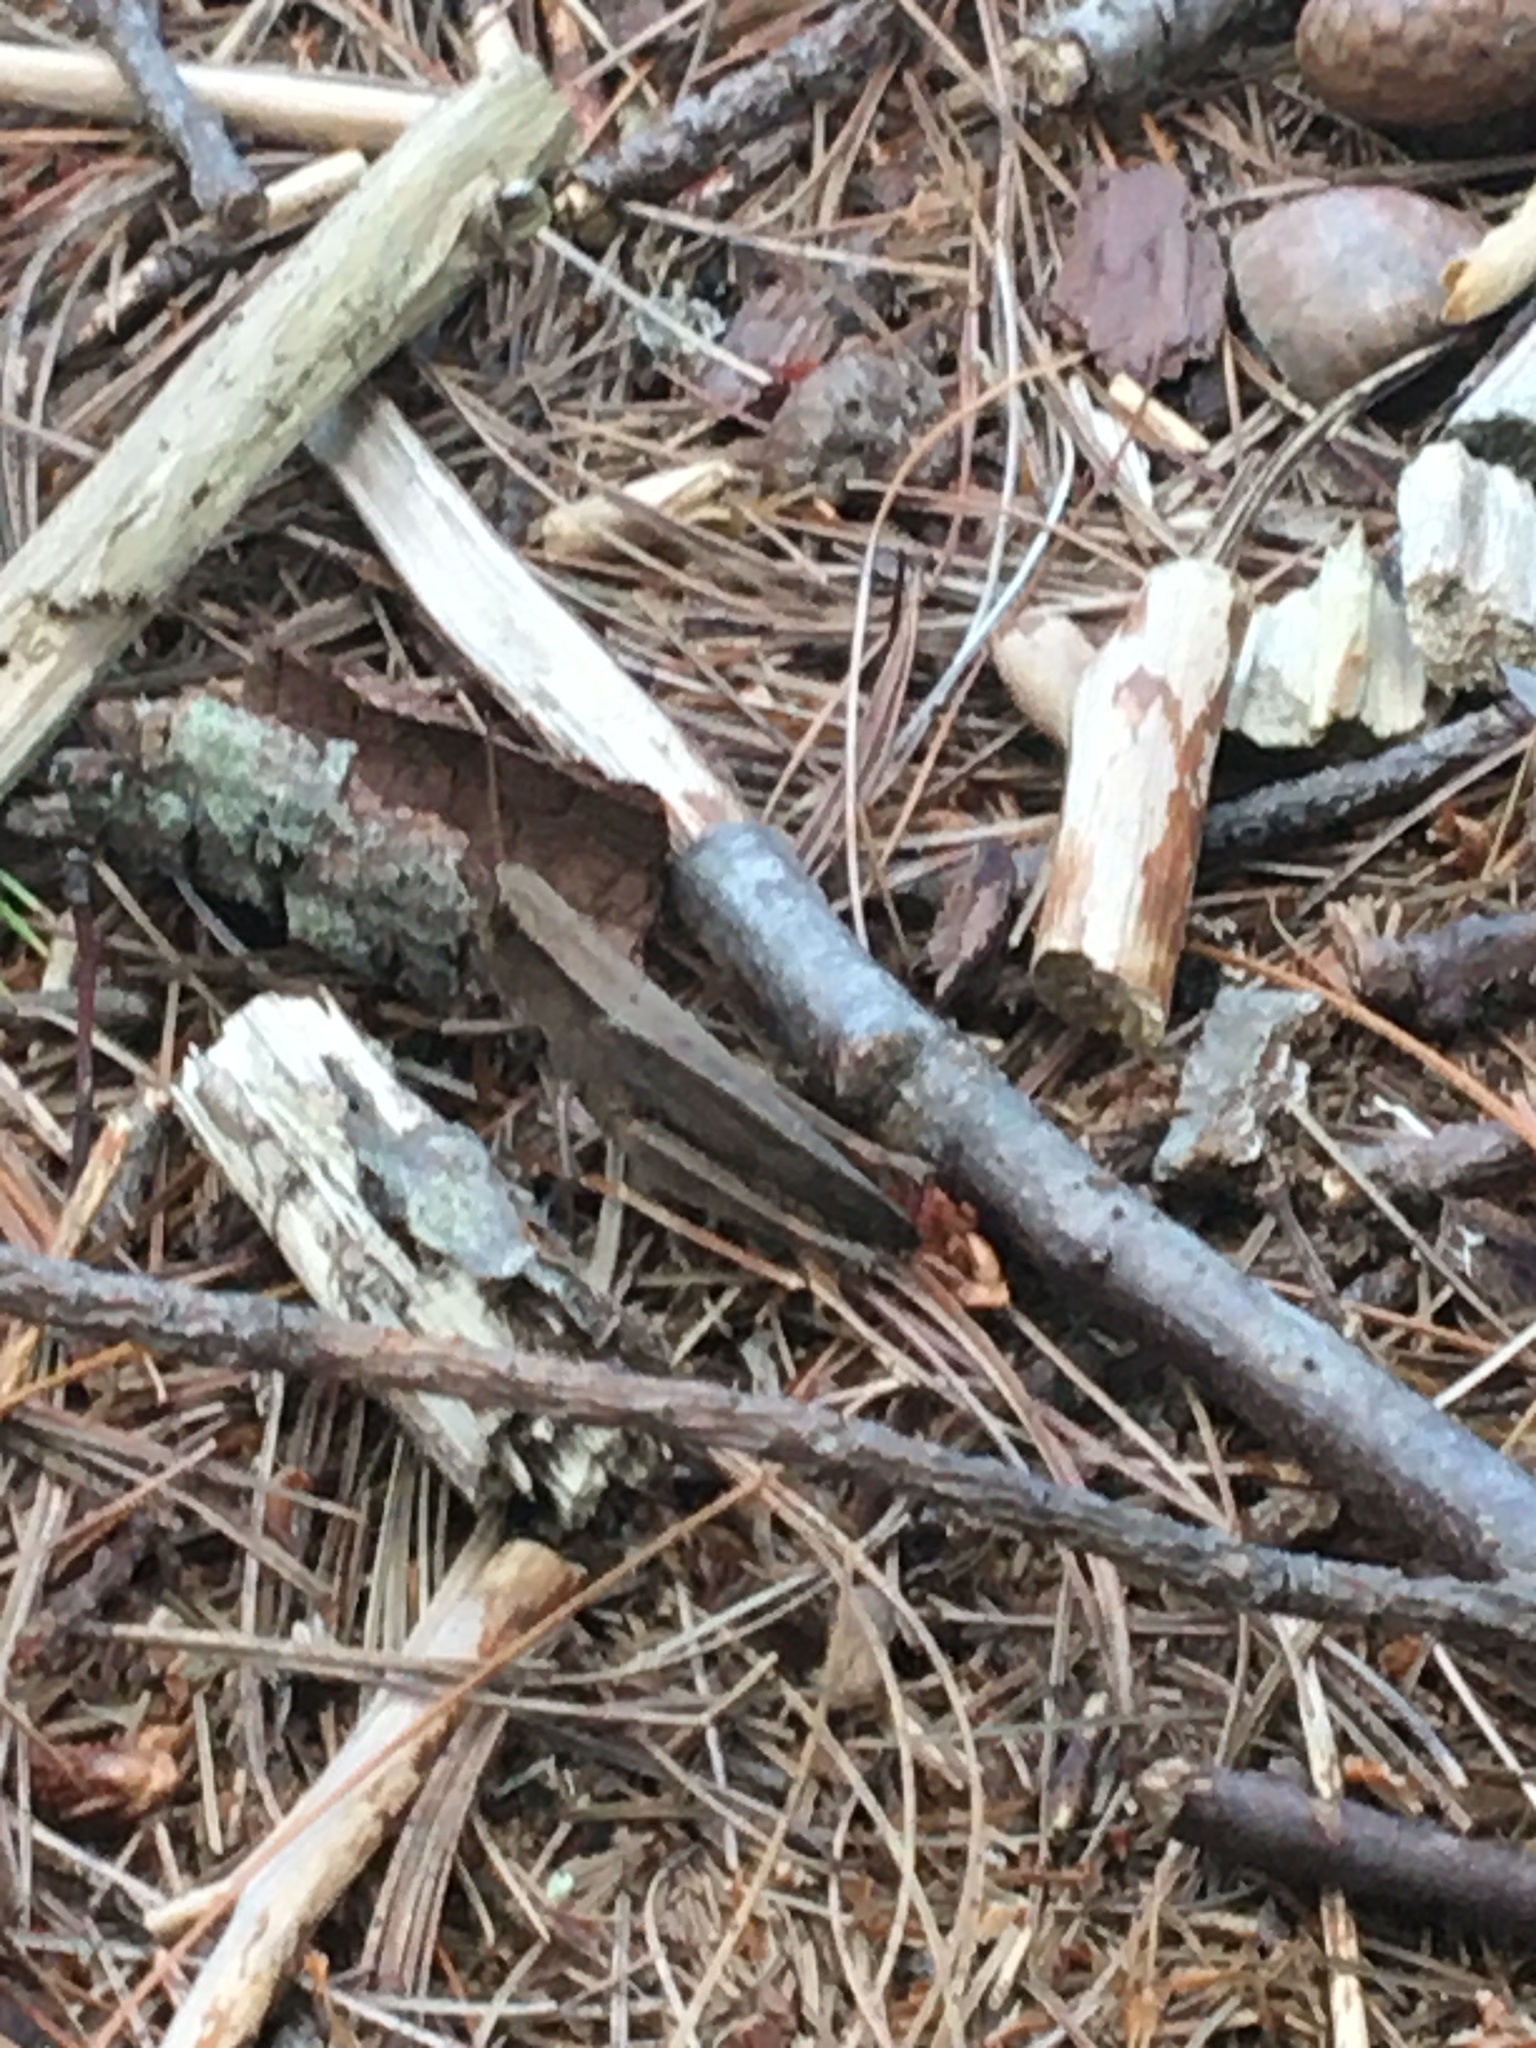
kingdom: Animalia
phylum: Arthropoda
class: Insecta
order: Orthoptera
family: Acrididae
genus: Dichromorpha
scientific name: Dichromorpha viridis
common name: Short-winged green grasshopper
